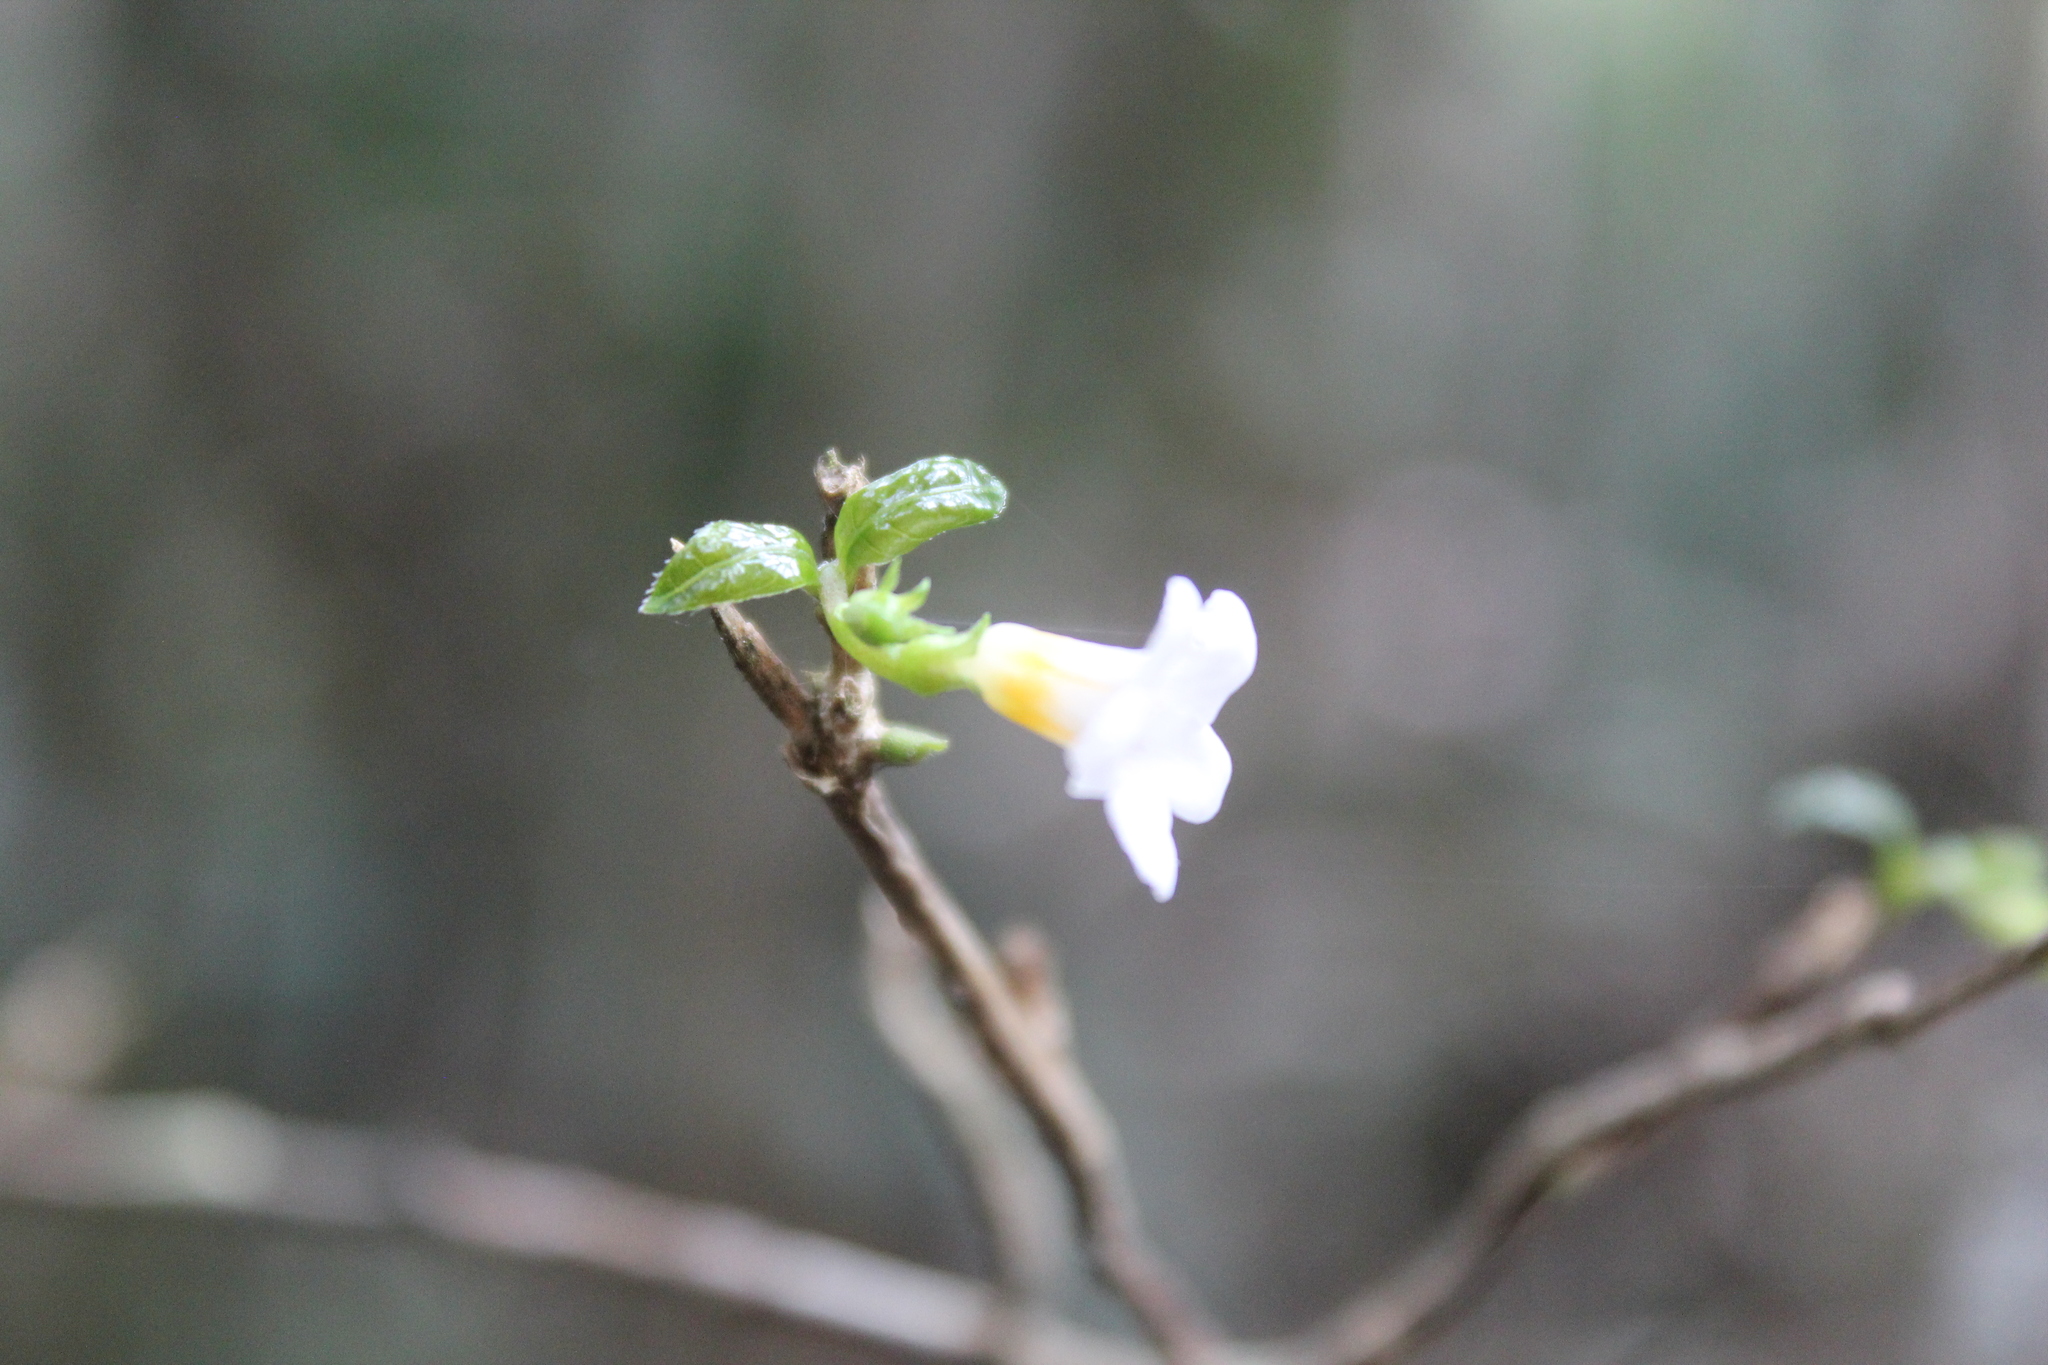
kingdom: Plantae
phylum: Tracheophyta
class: Magnoliopsida
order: Gentianales
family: Gelsemiaceae
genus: Mostuea
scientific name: Mostuea brunonis
